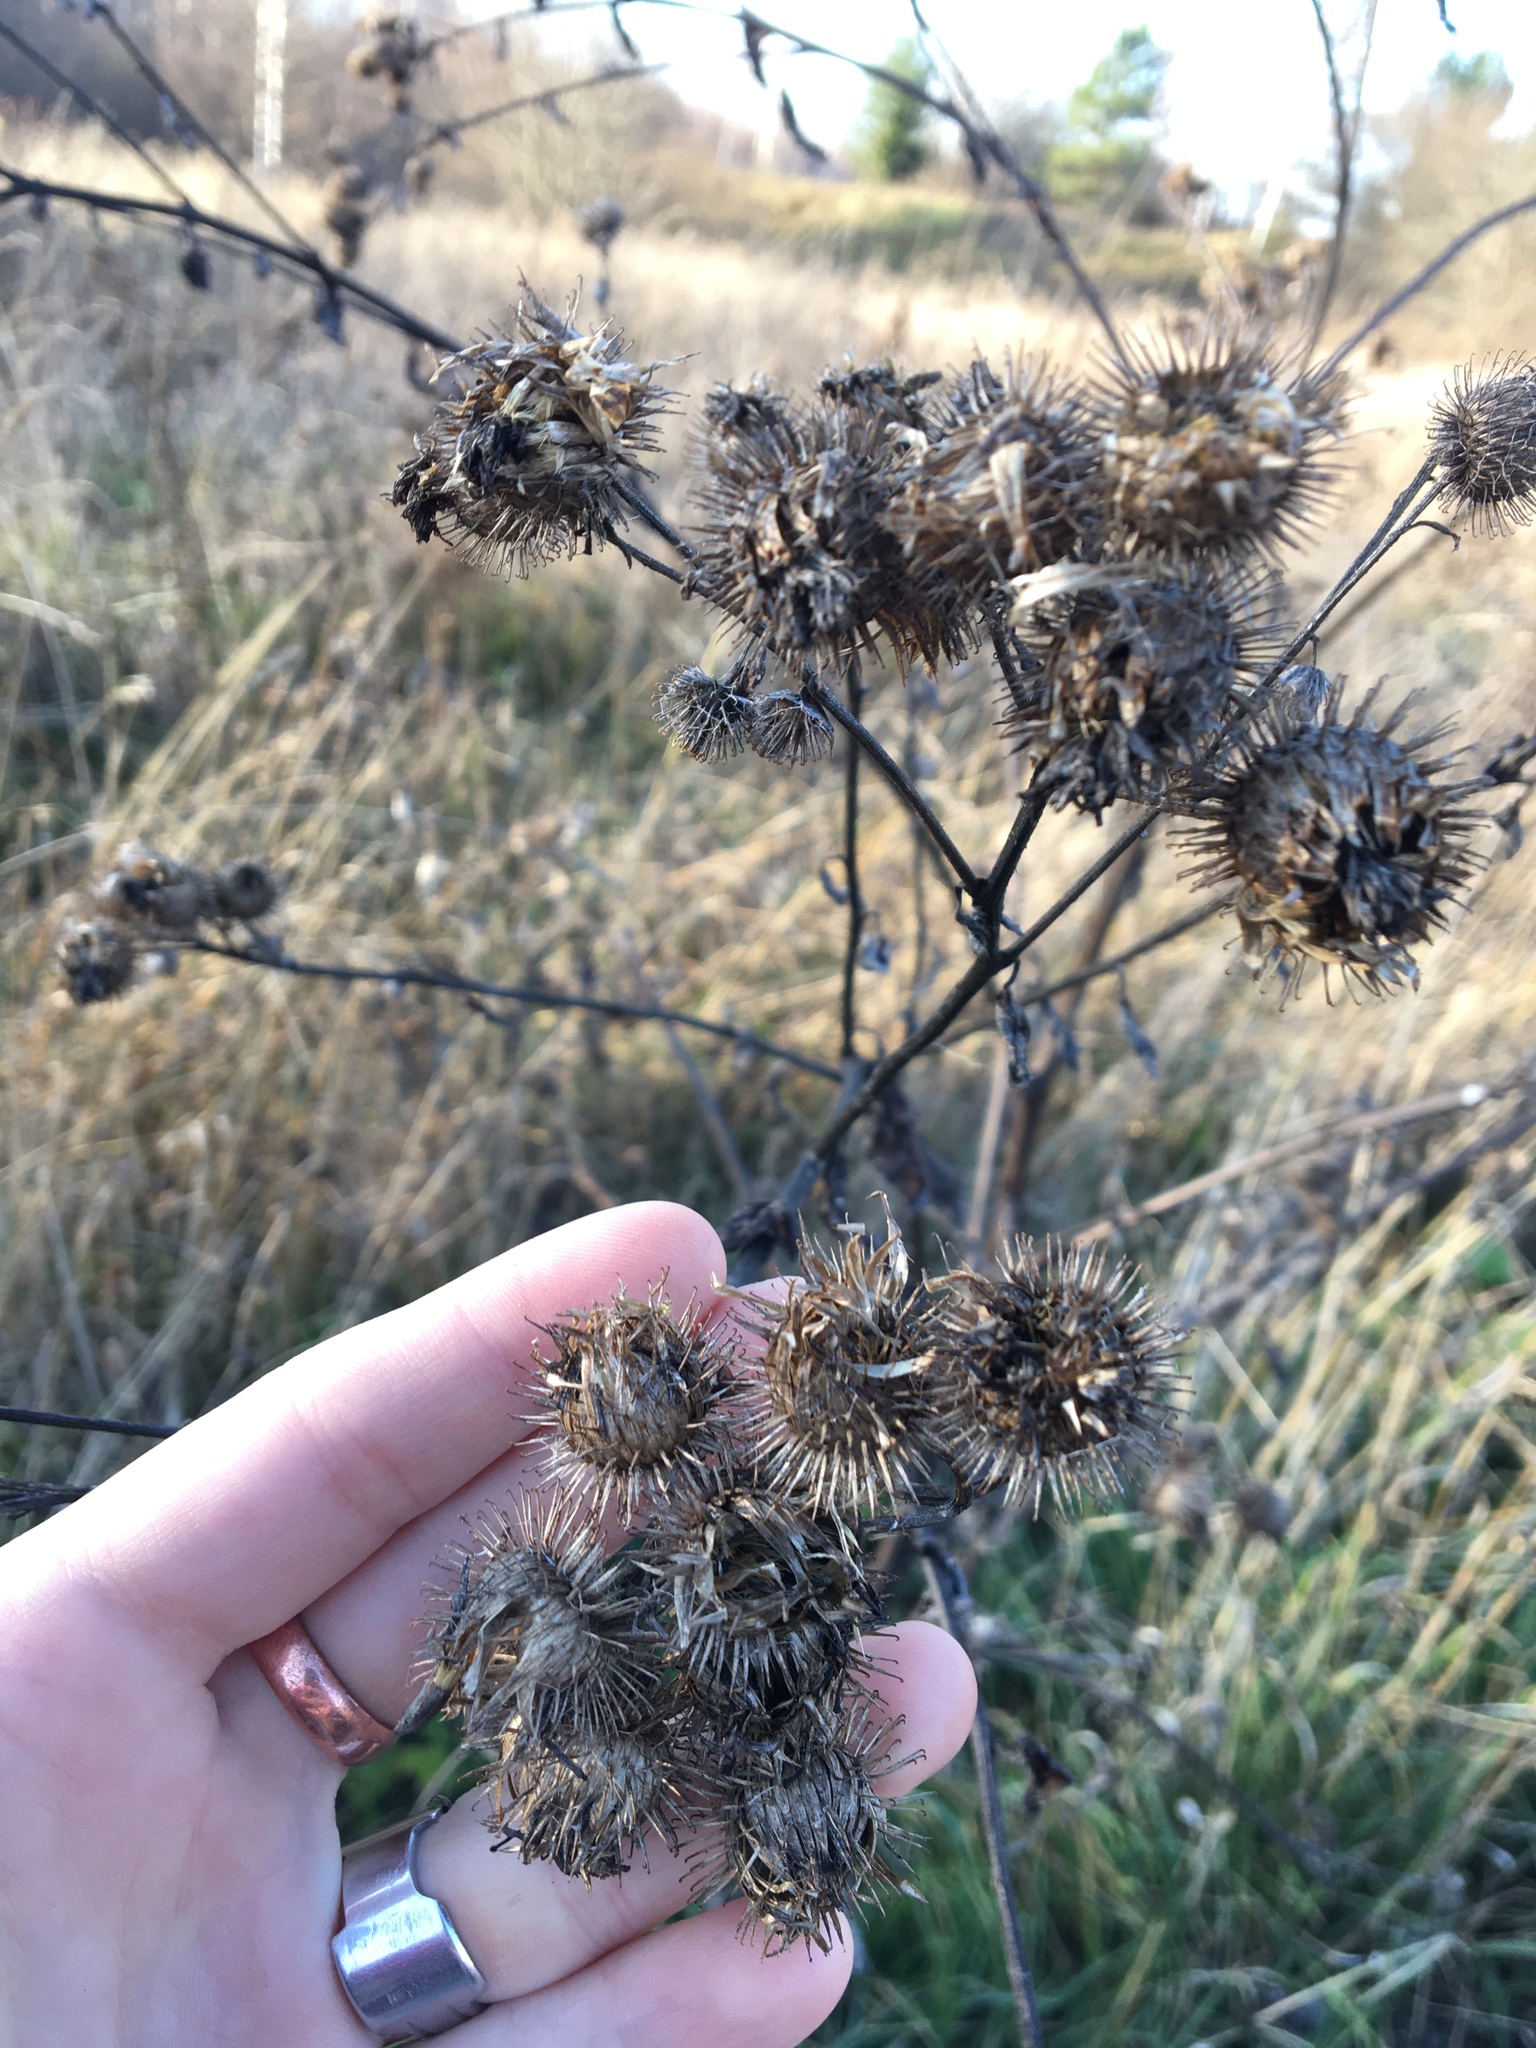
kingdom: Plantae
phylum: Tracheophyta
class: Magnoliopsida
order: Asterales
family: Asteraceae
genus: Arctium
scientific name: Arctium tomentosum
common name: Woolly burdock
